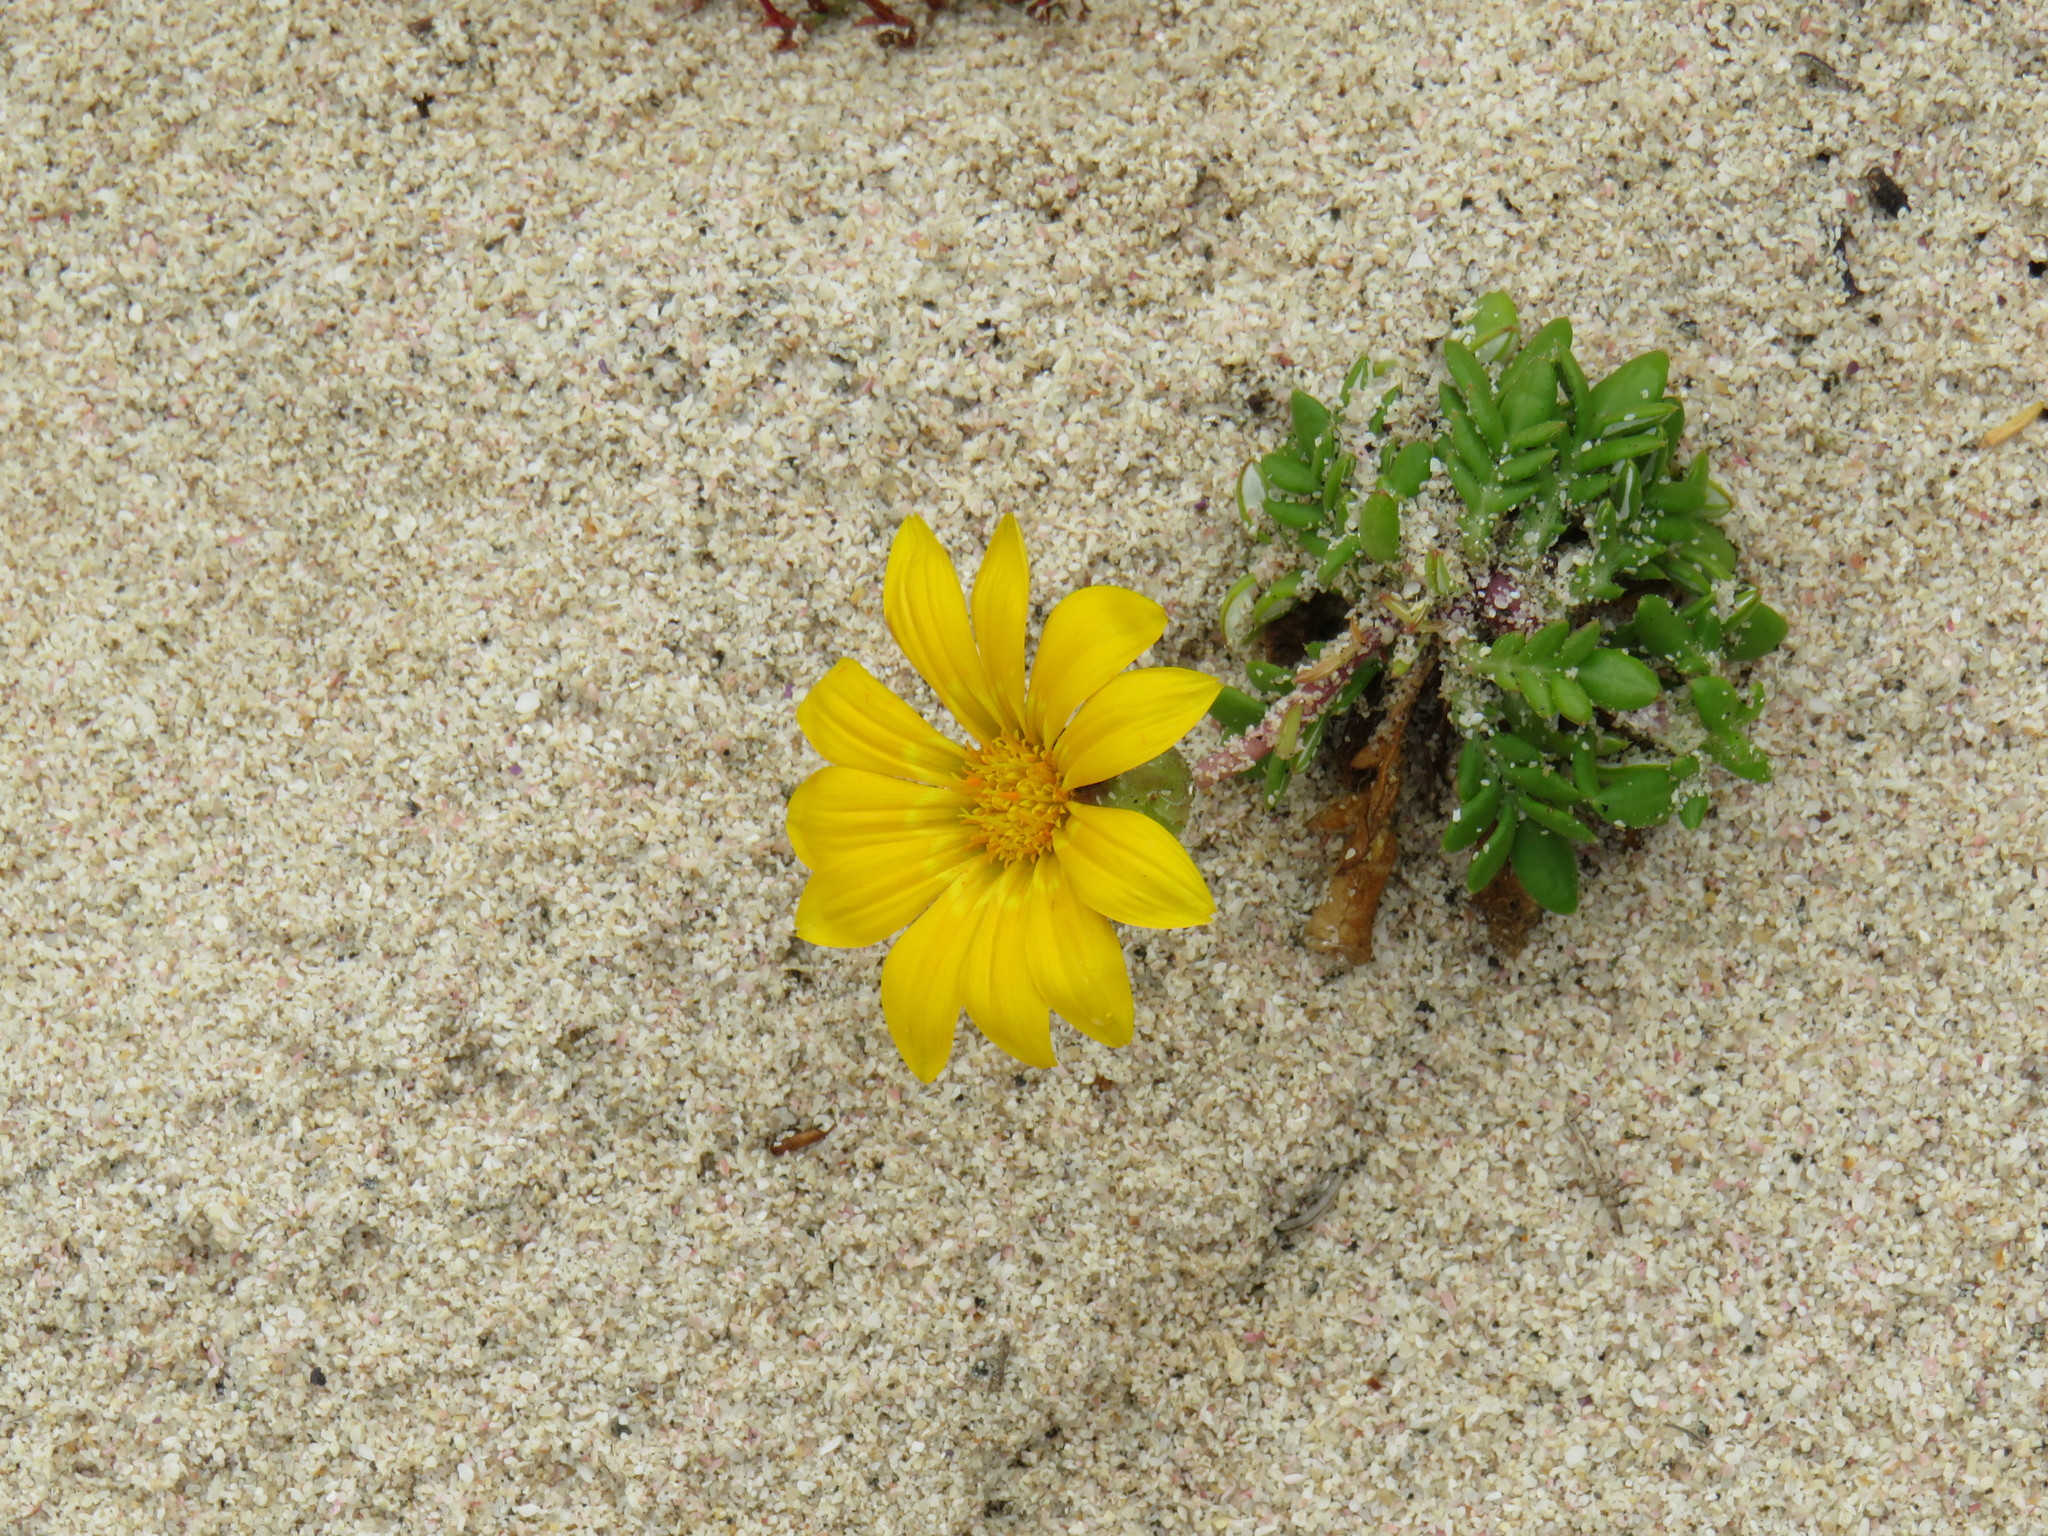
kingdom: Plantae
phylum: Tracheophyta
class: Magnoliopsida
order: Asterales
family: Asteraceae
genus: Gazania
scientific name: Gazania maritima
